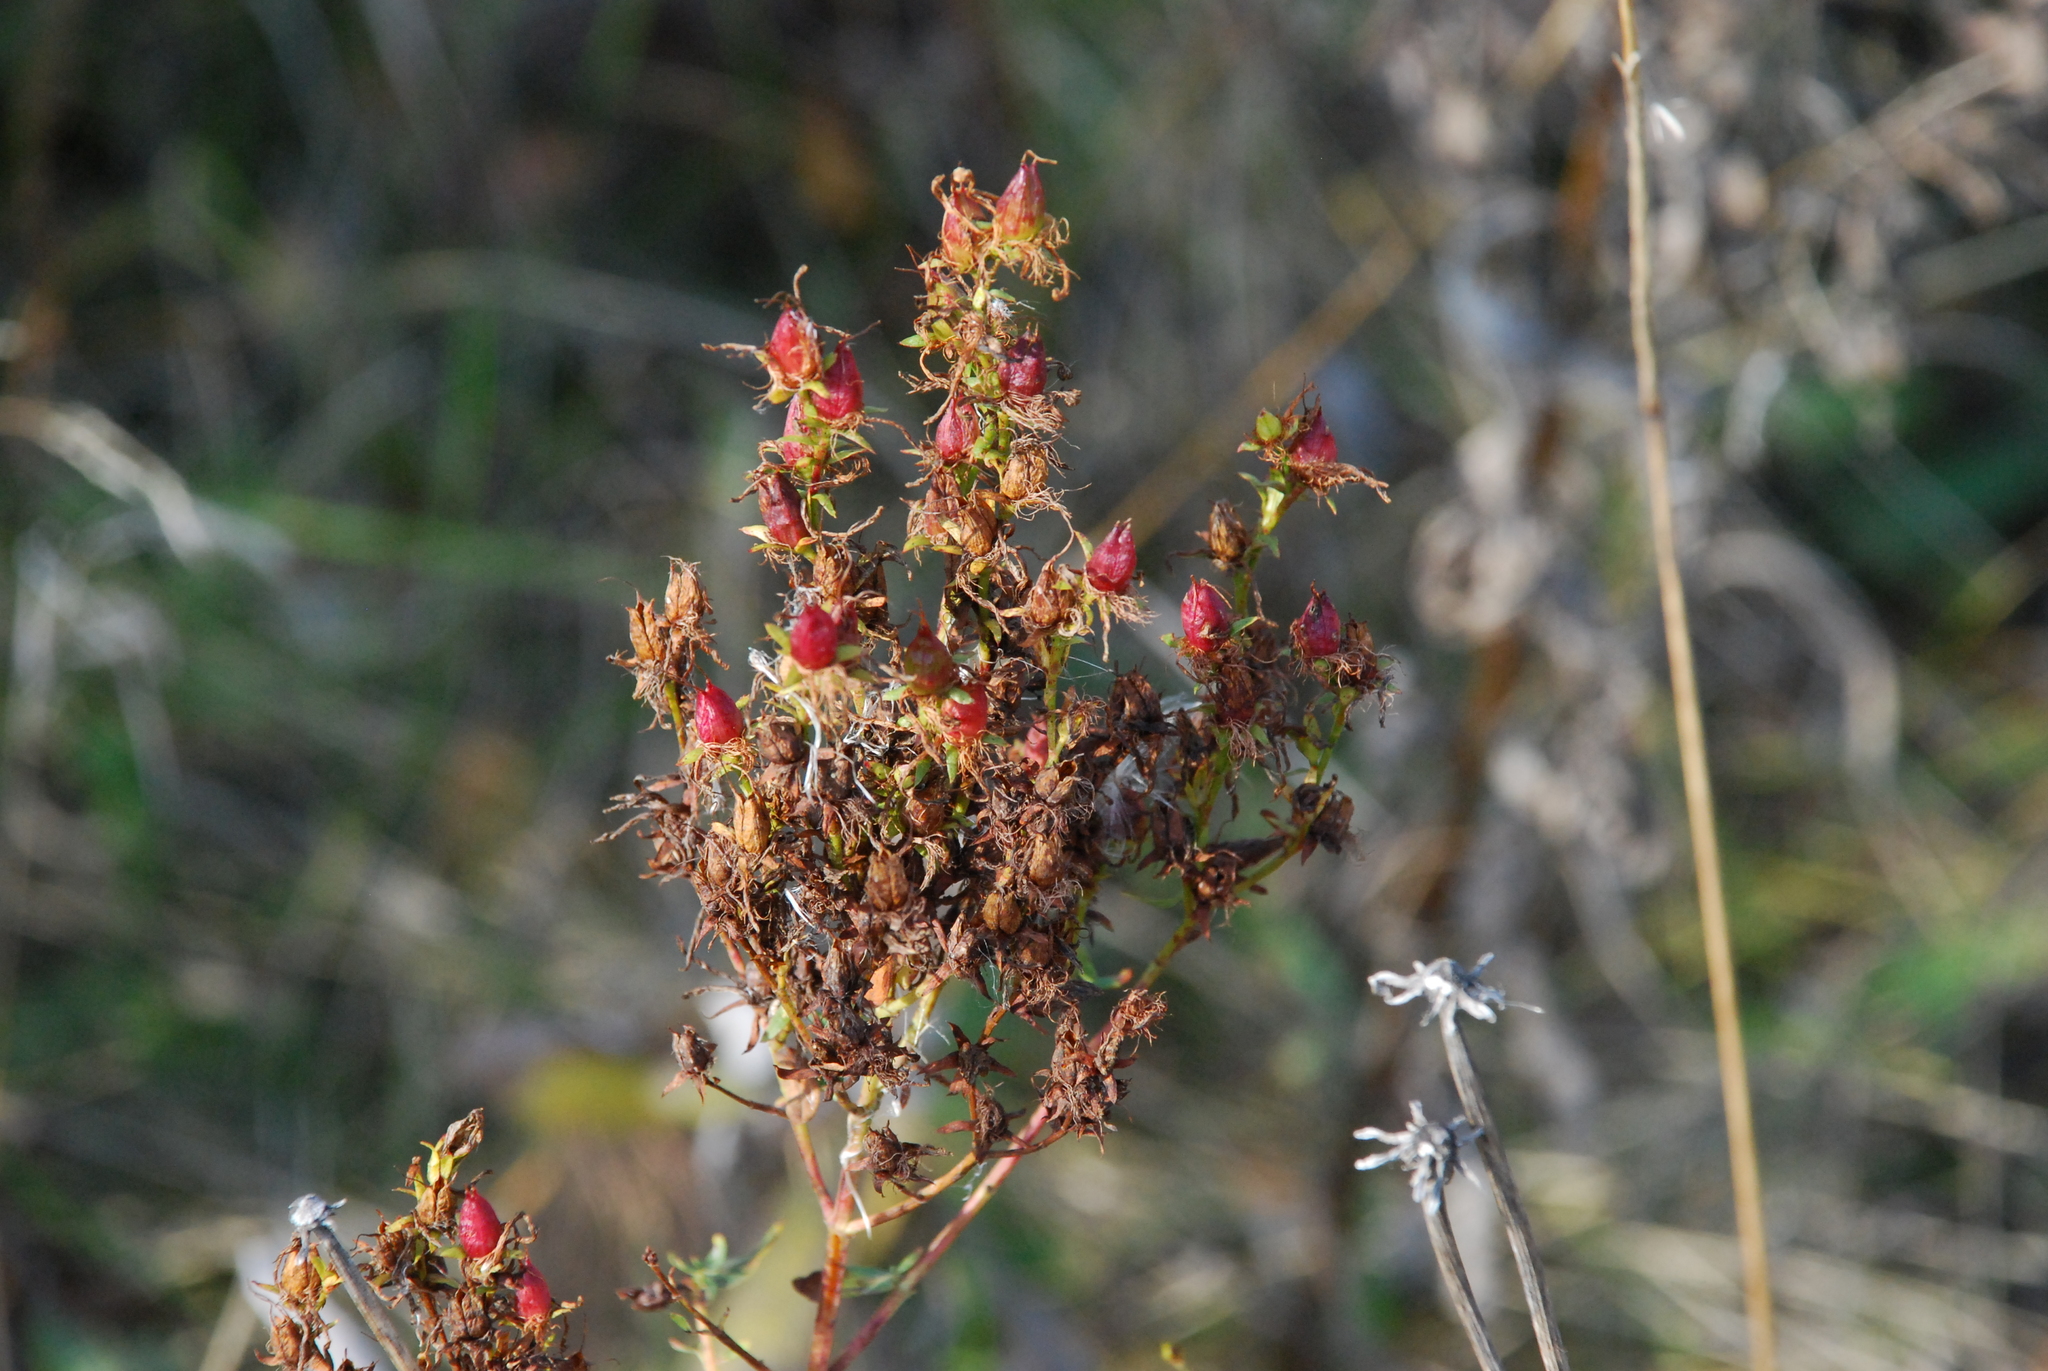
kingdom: Plantae
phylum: Tracheophyta
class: Magnoliopsida
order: Malpighiales
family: Hypericaceae
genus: Hypericum
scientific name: Hypericum perforatum
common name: Common st. johnswort
